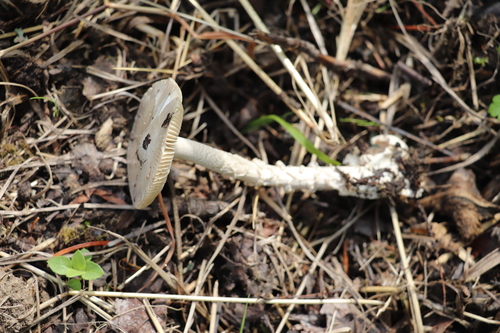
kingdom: Fungi
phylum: Basidiomycota
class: Agaricomycetes
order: Agaricales
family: Amanitaceae
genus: Amanita
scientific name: Amanita vaginata
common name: Grisette
